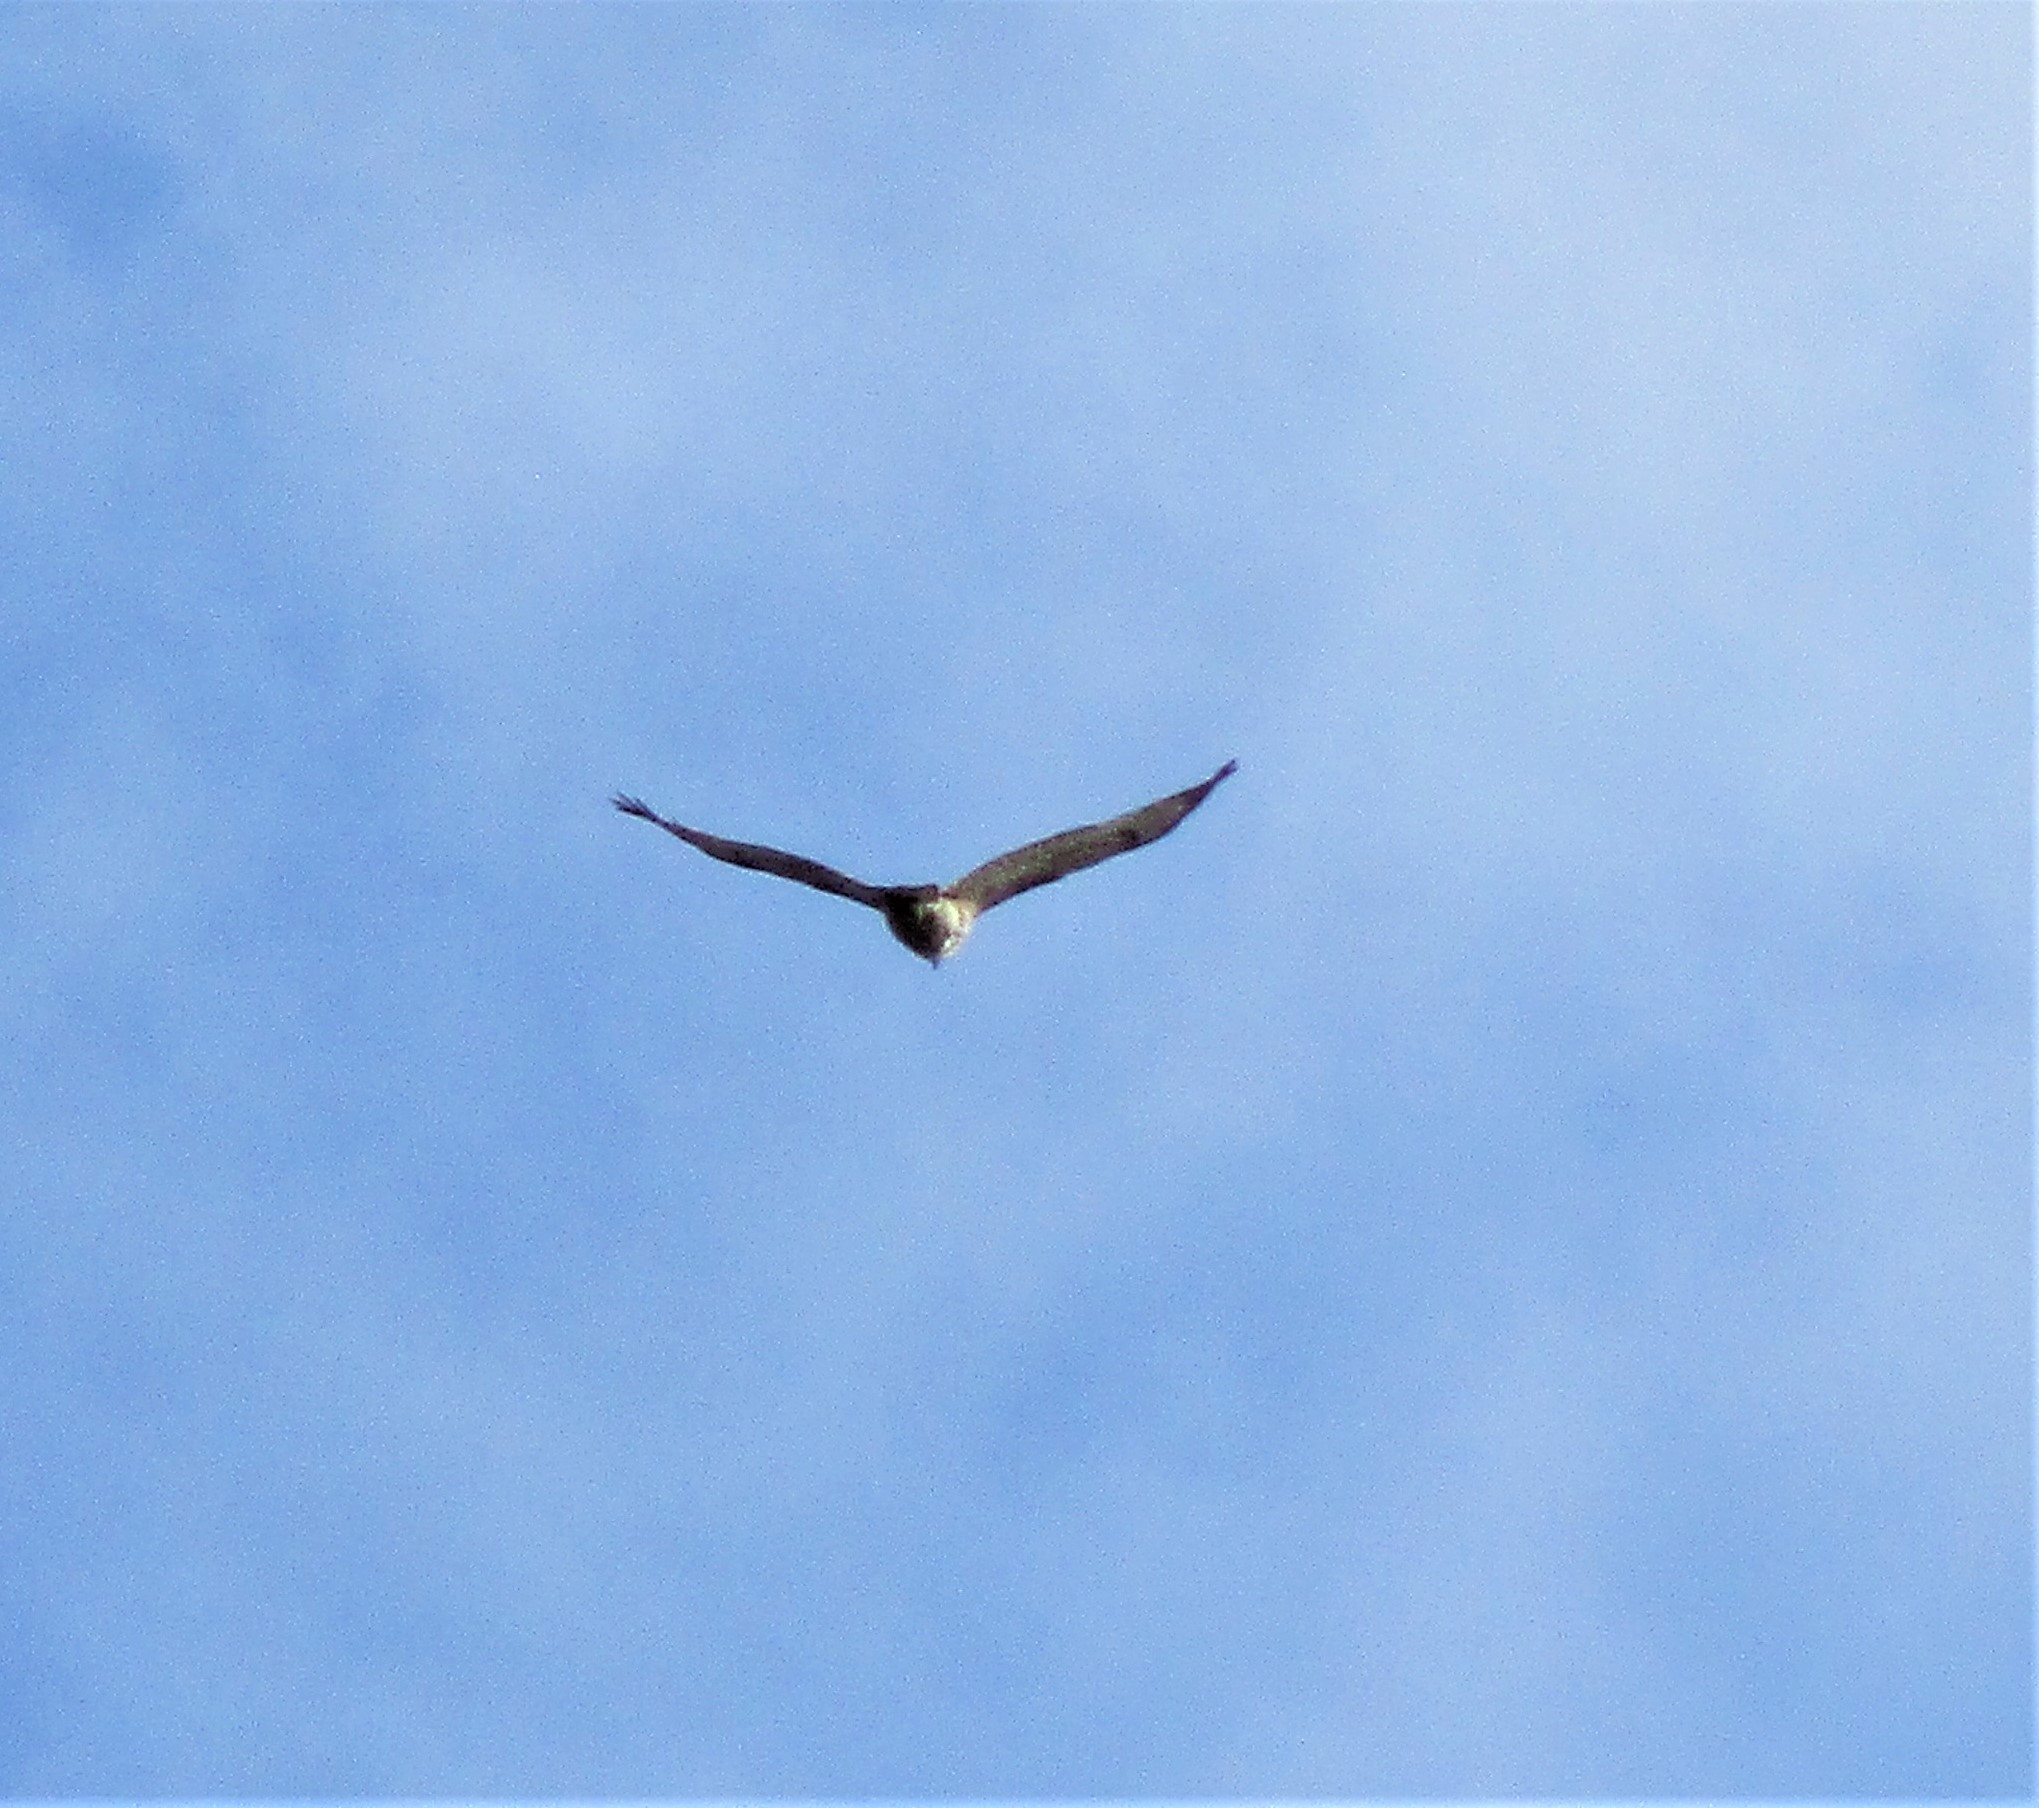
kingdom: Animalia
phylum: Chordata
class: Aves
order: Accipitriformes
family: Accipitridae
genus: Buteo
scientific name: Buteo jamaicensis
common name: Red-tailed hawk
